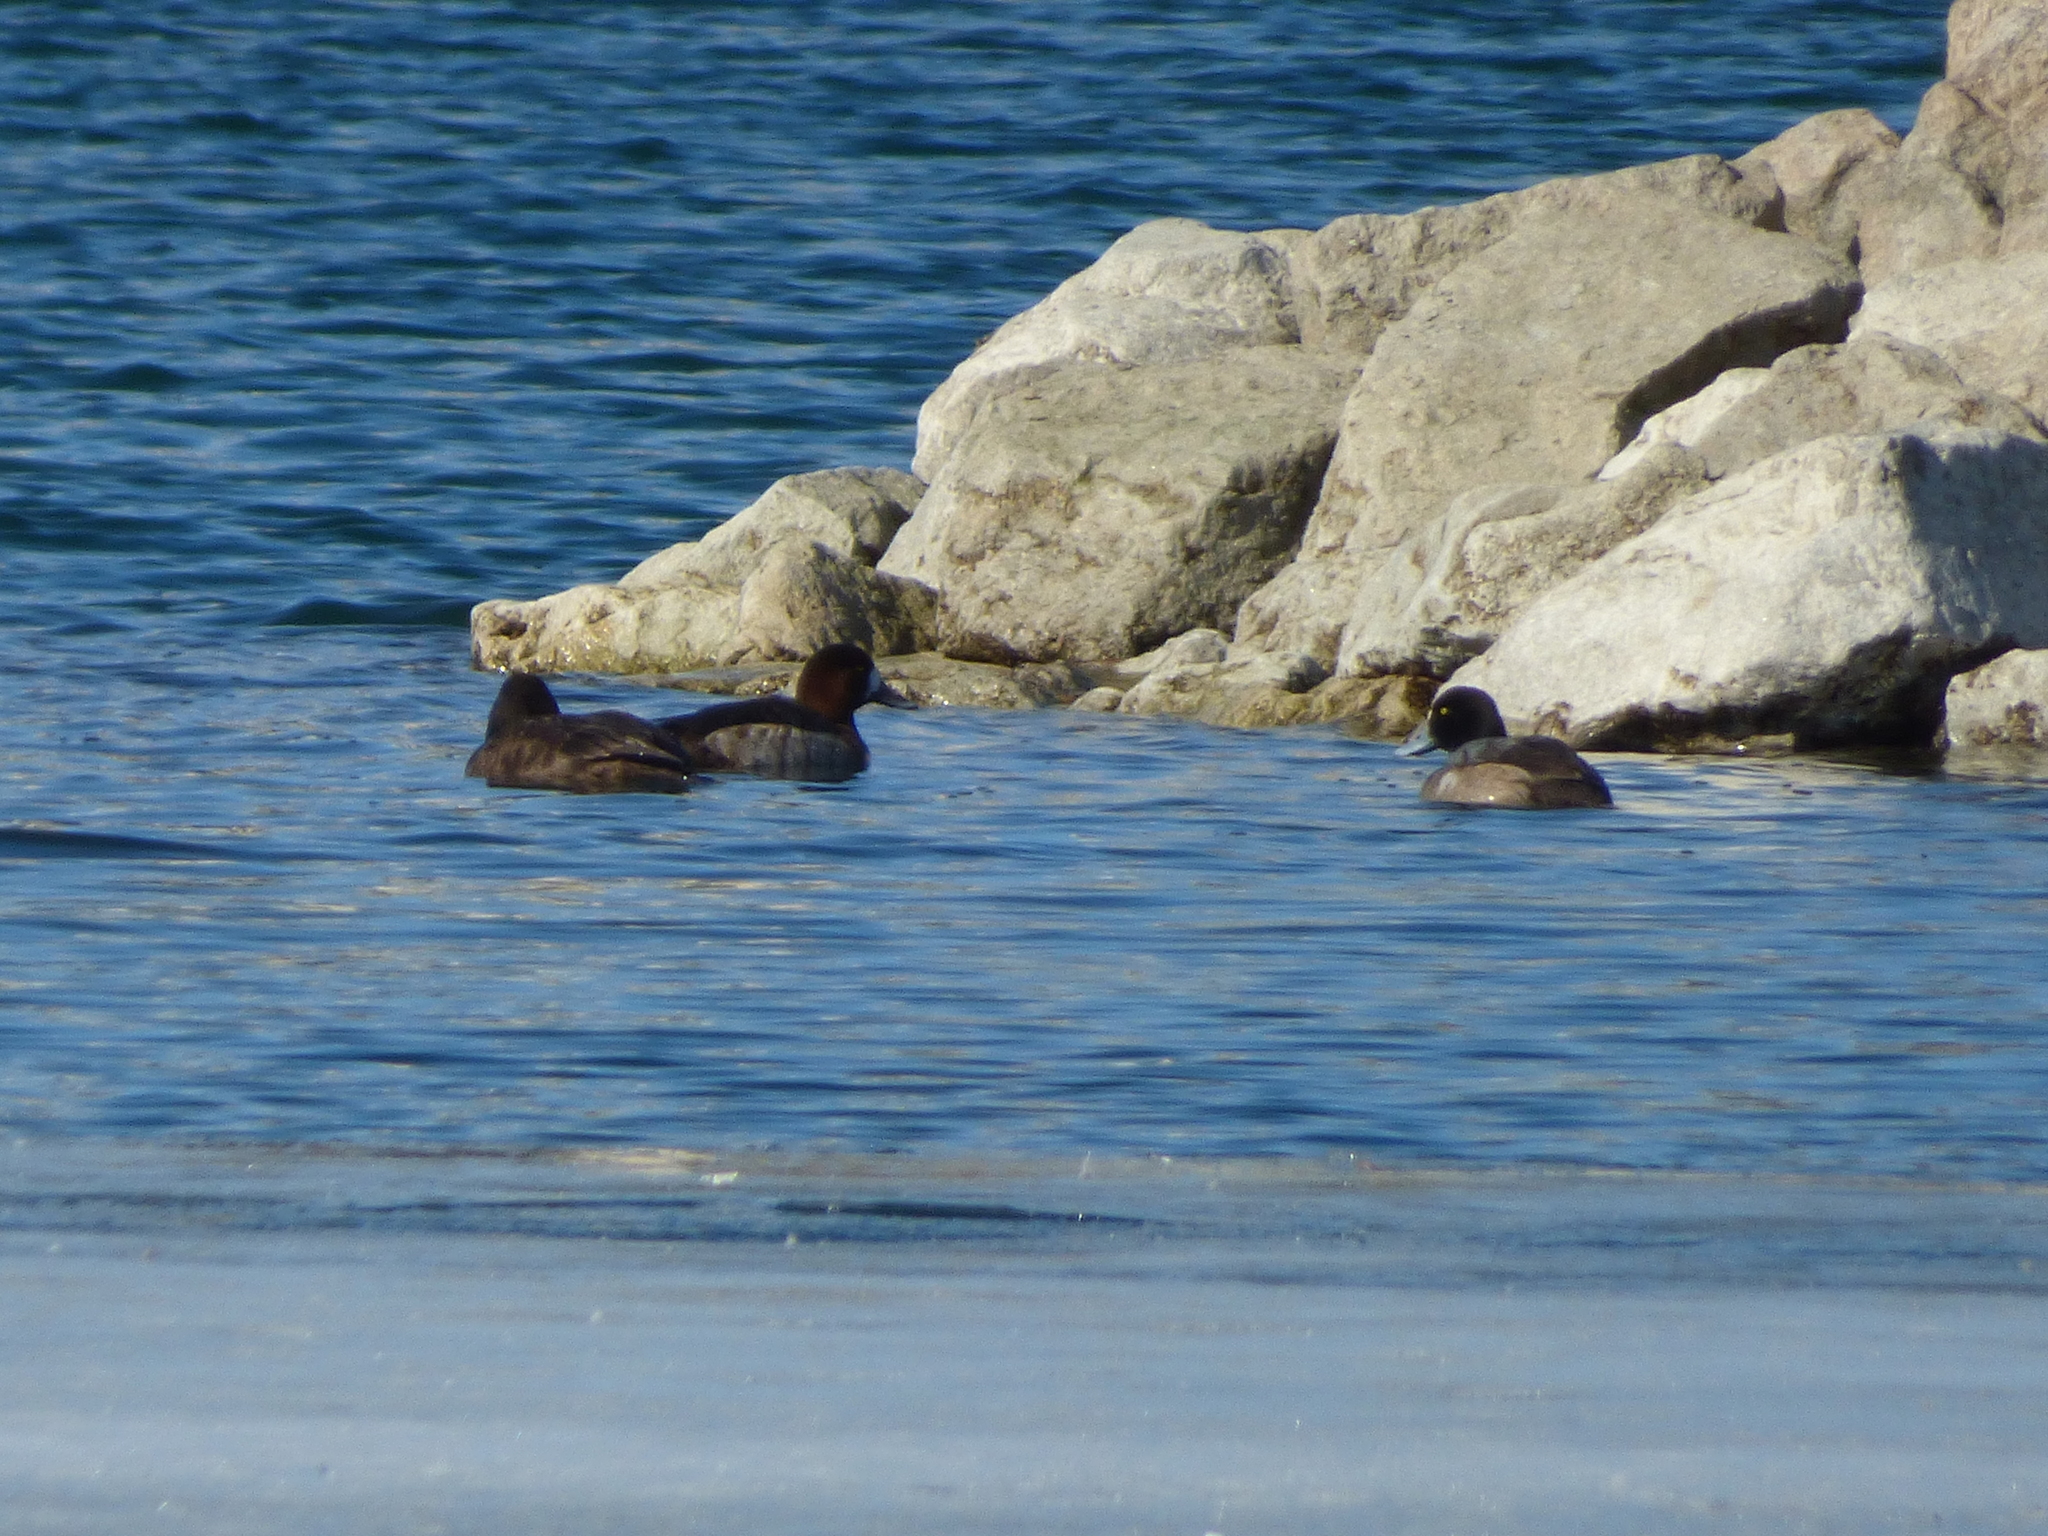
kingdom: Animalia
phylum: Chordata
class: Aves
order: Anseriformes
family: Anatidae
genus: Aythya
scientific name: Aythya marila
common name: Greater scaup
